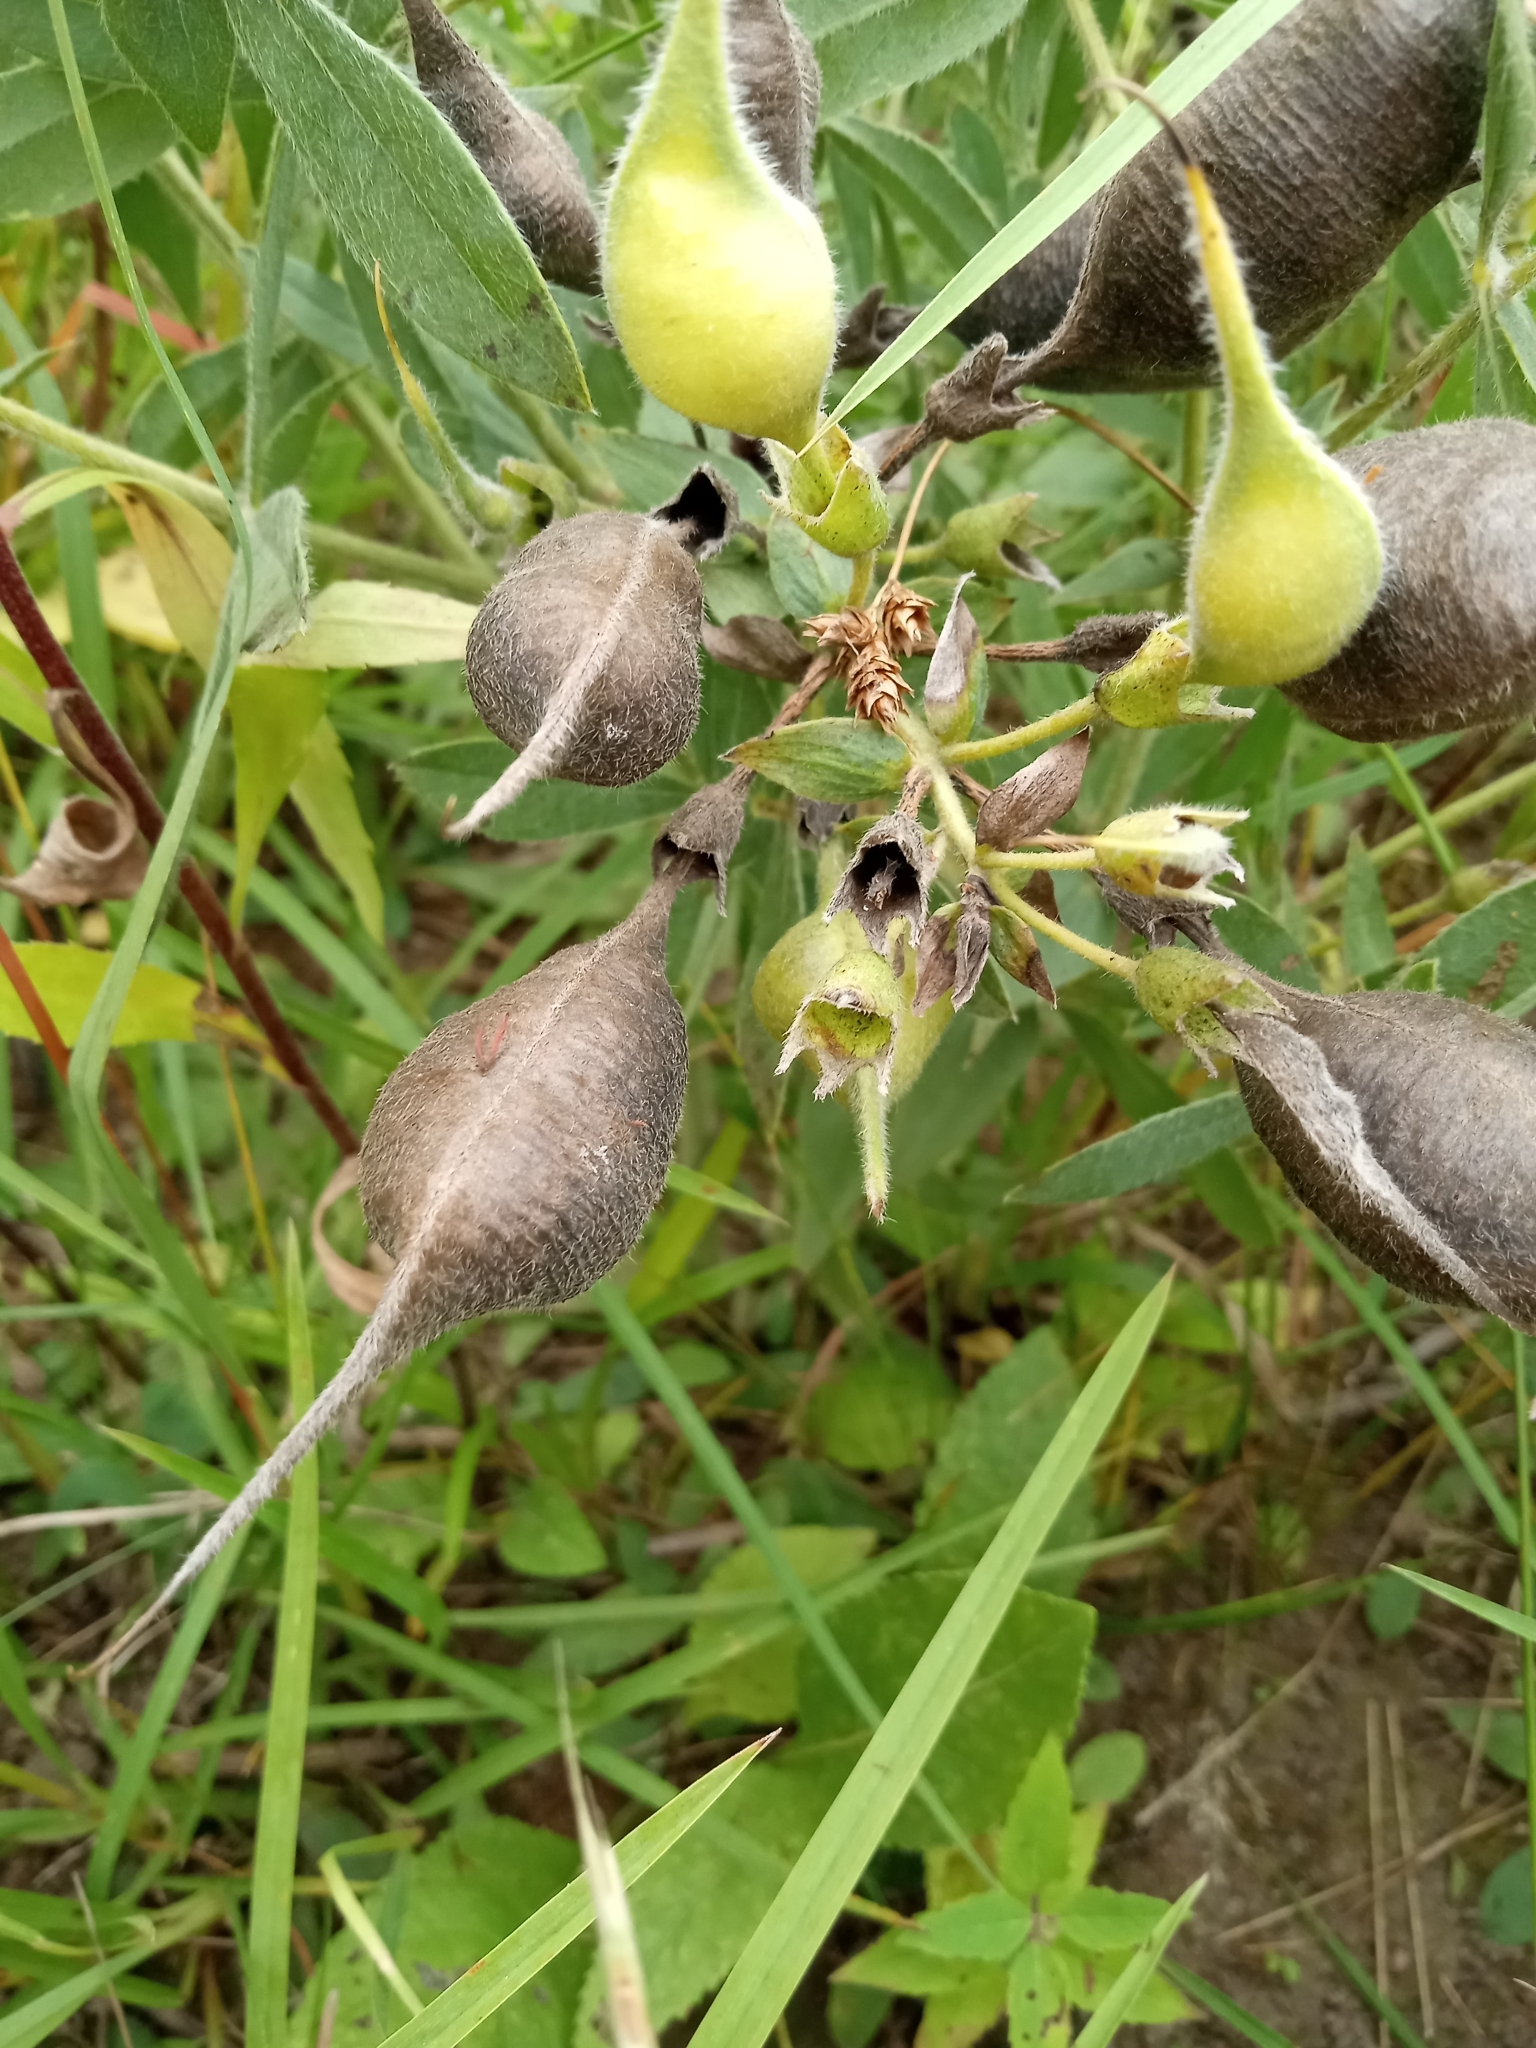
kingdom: Plantae
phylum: Tracheophyta
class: Magnoliopsida
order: Fabales
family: Fabaceae
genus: Baptisia
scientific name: Baptisia bracteata
